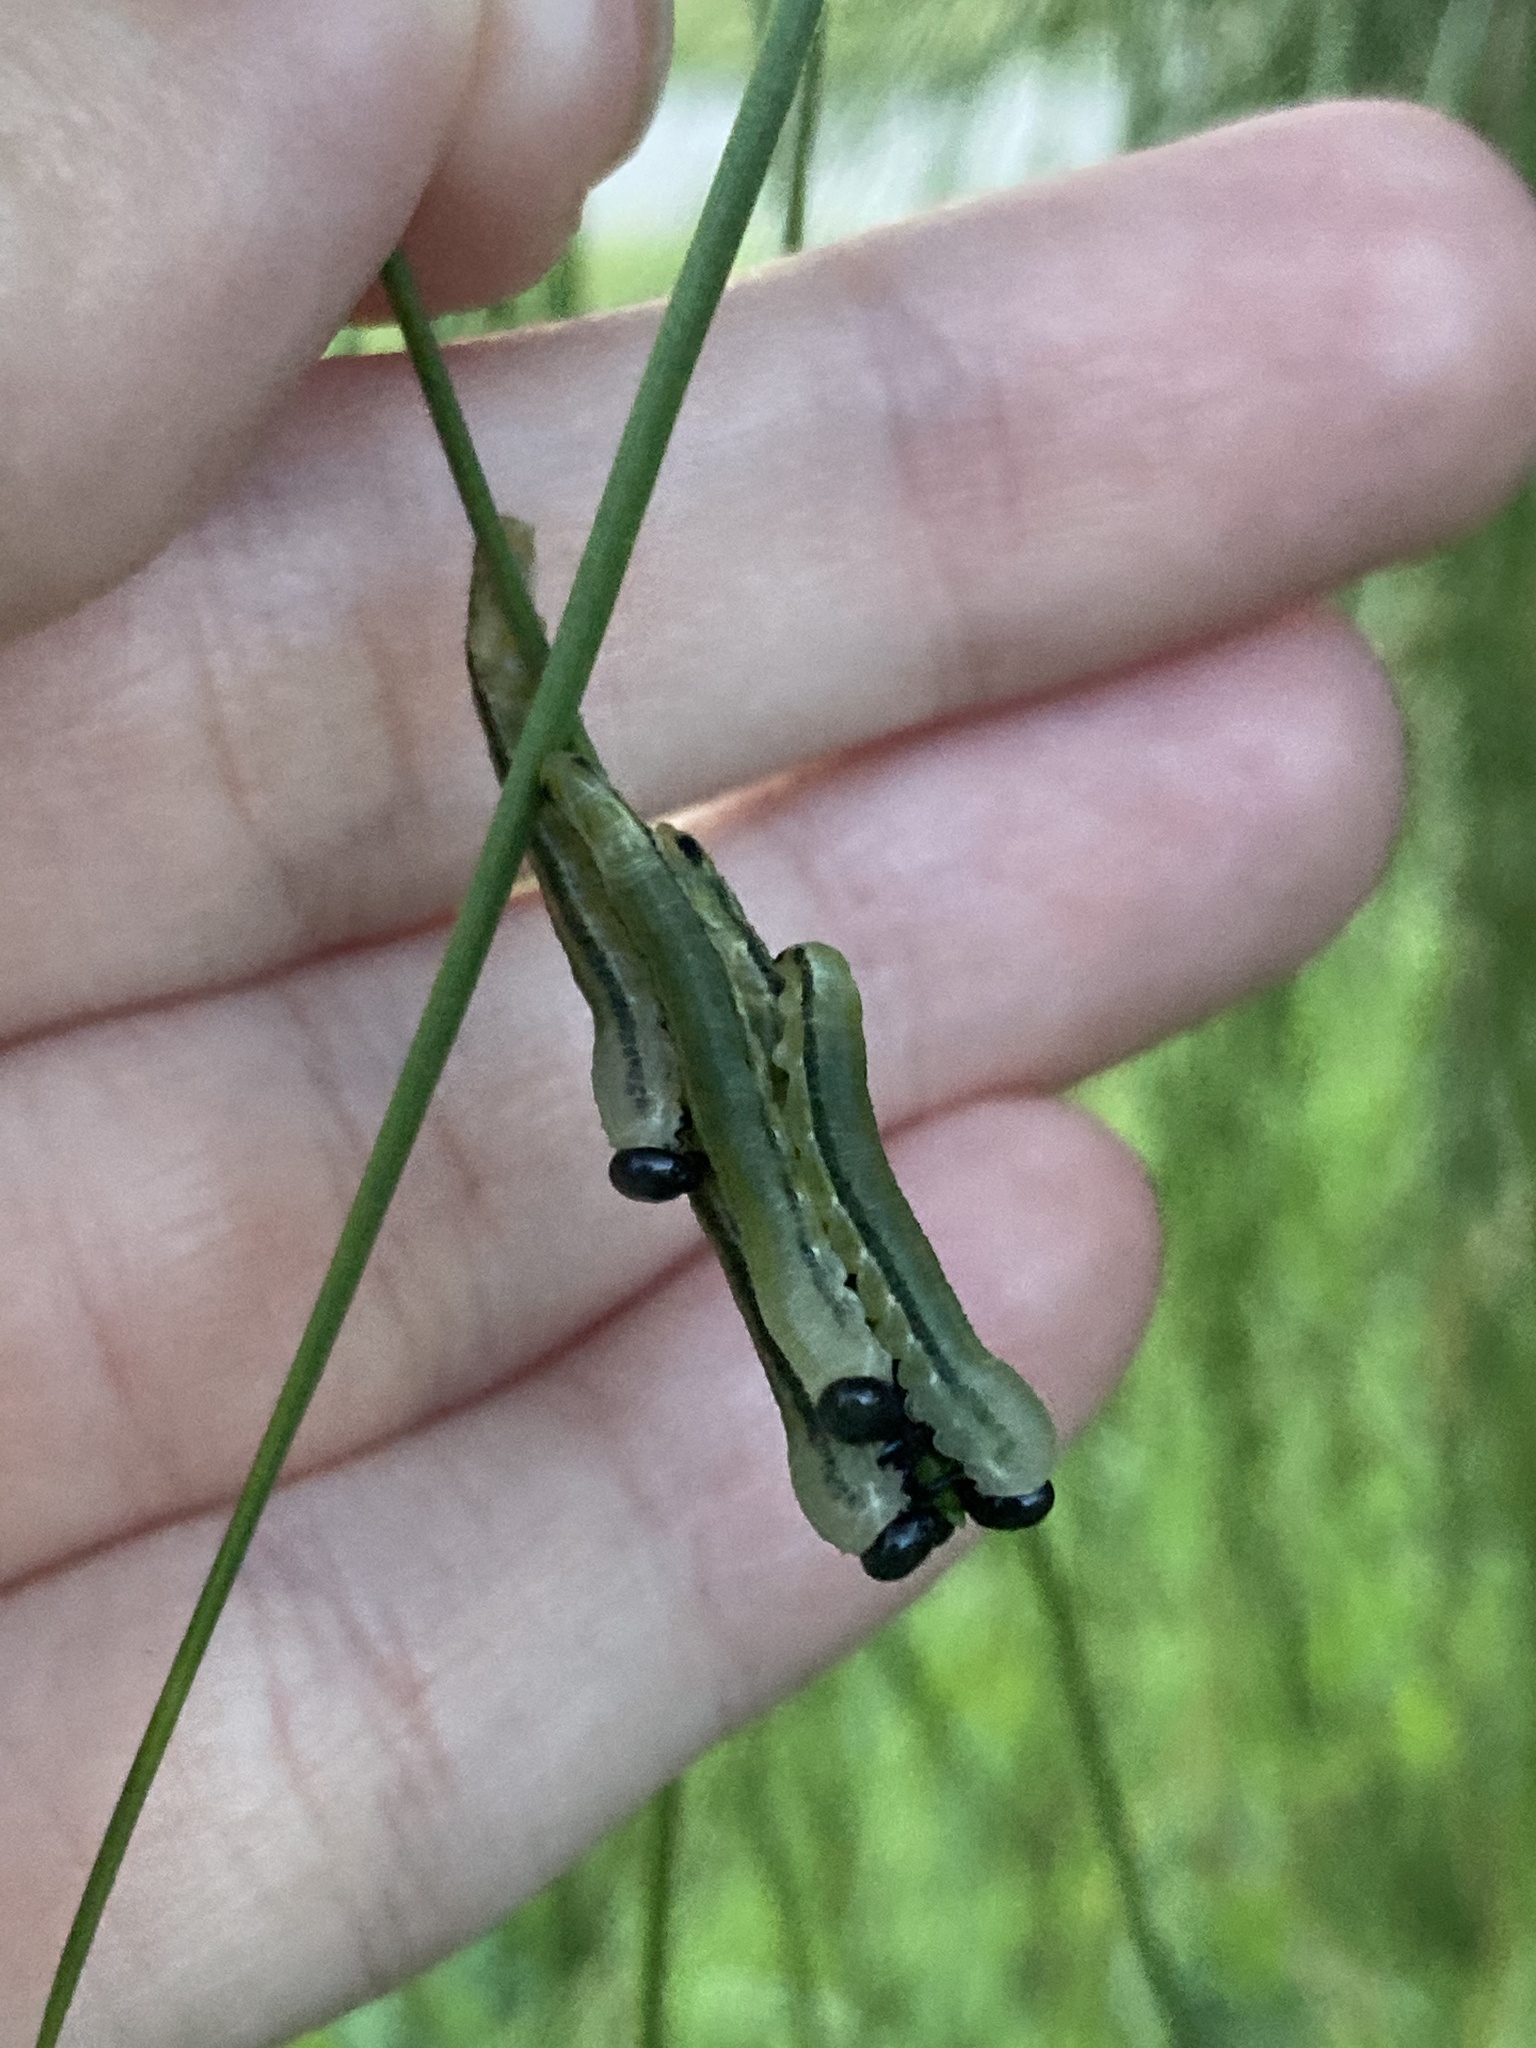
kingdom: Animalia
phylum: Arthropoda
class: Insecta
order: Hymenoptera
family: Diprionidae
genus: Neodiprion
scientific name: Neodiprion merkeli
